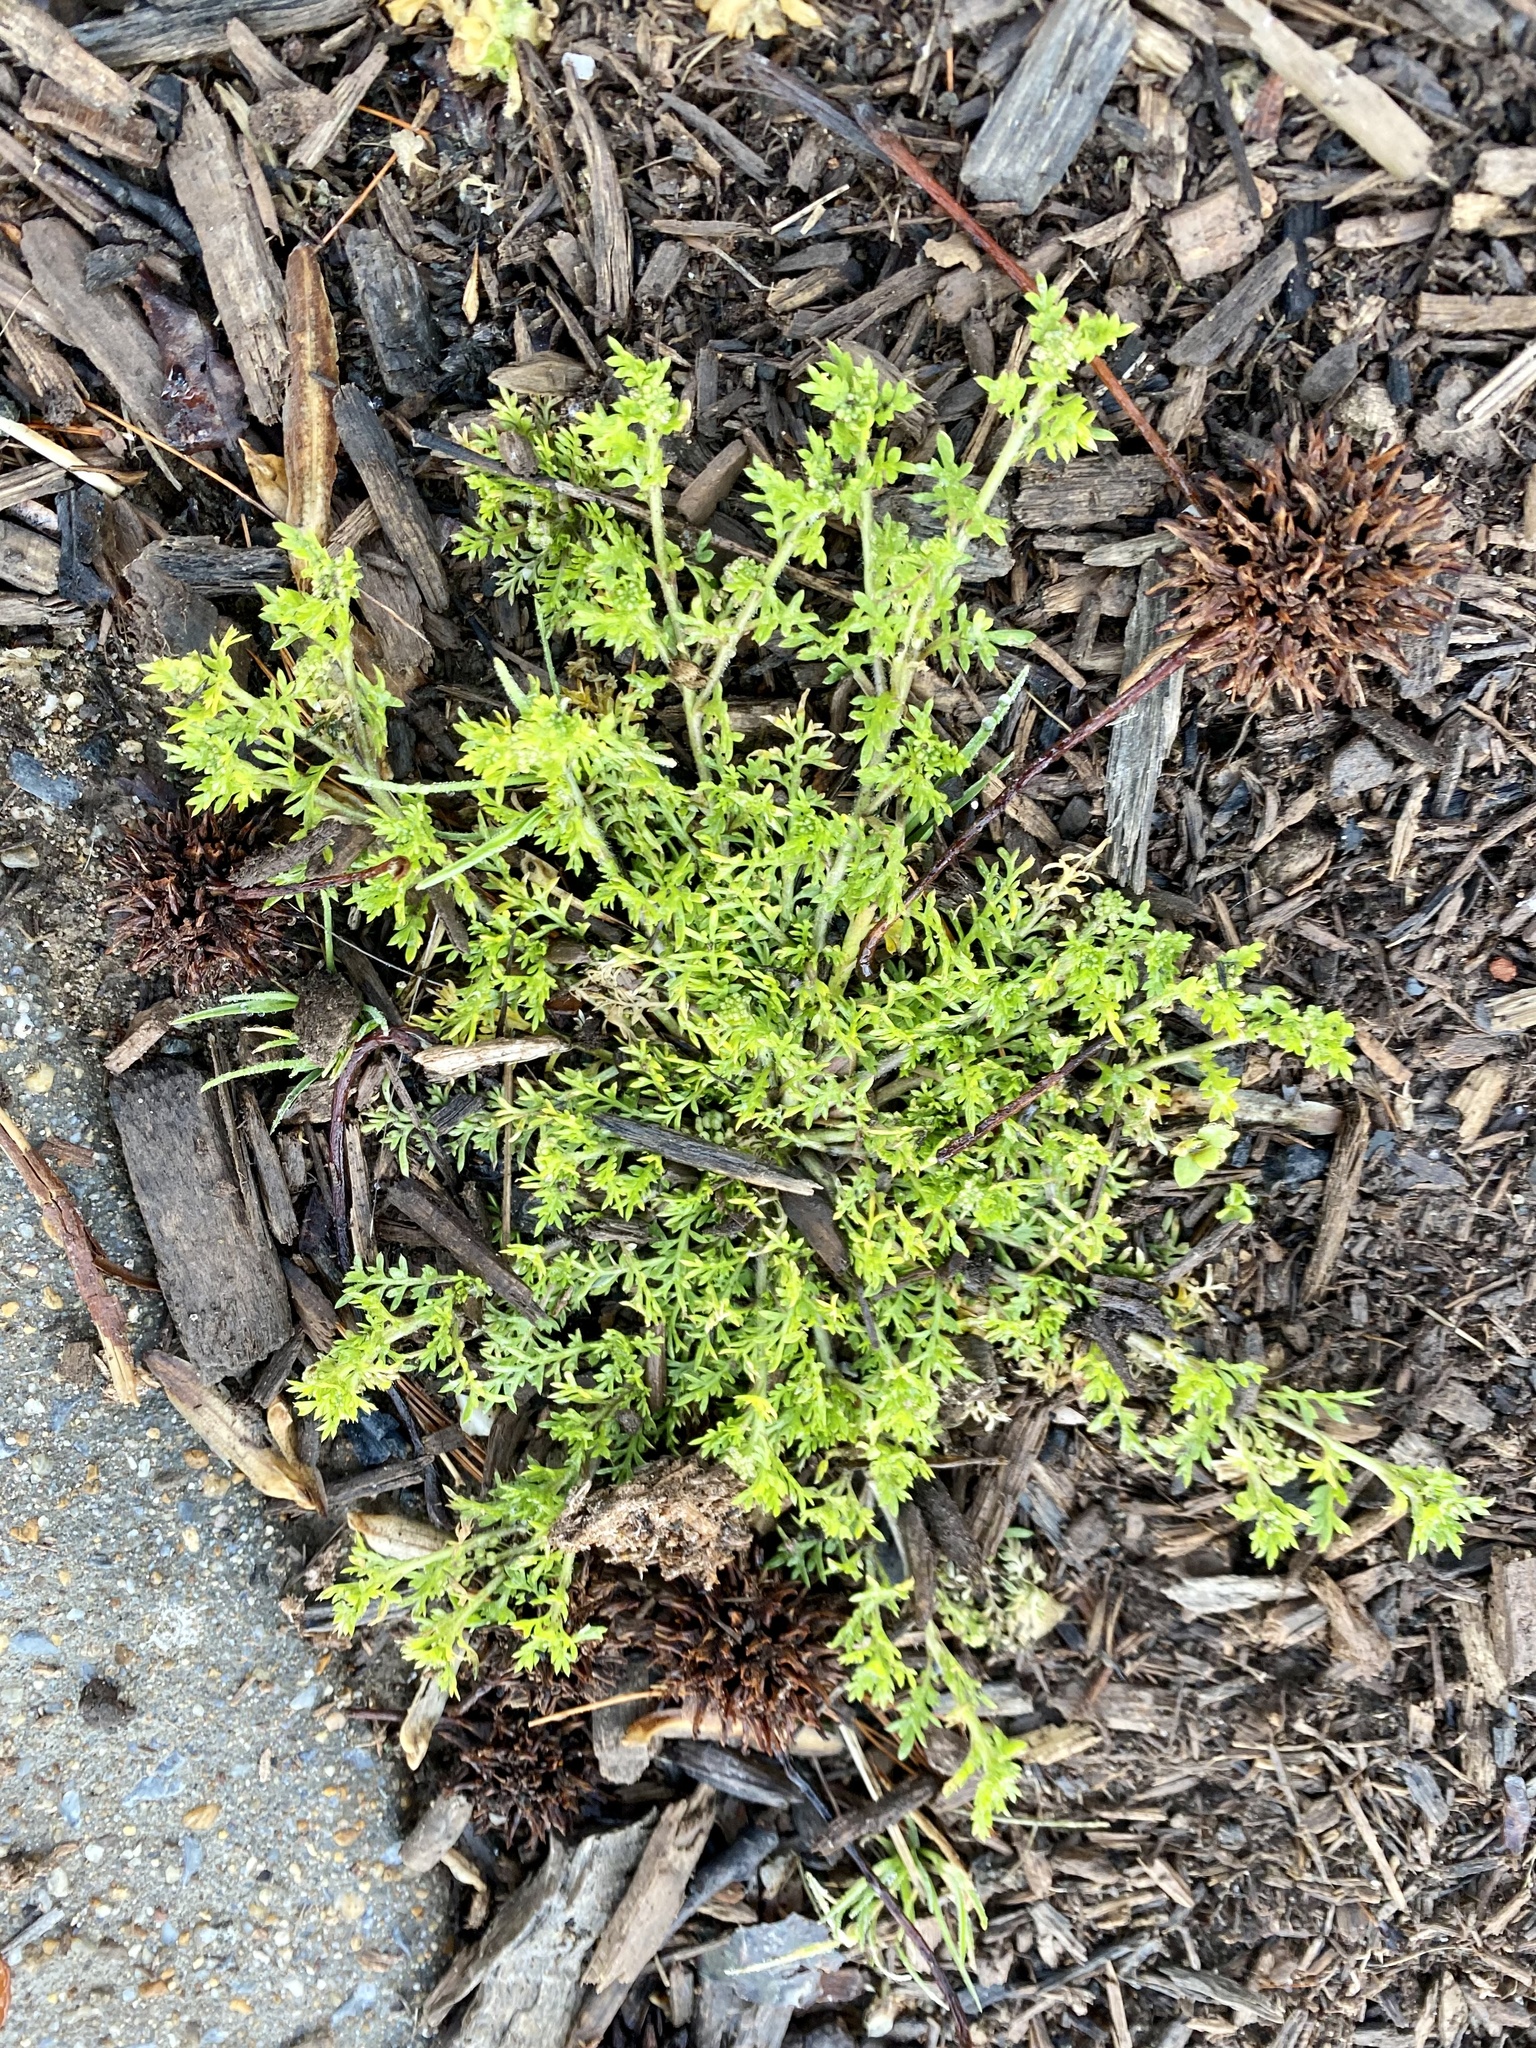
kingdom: Plantae
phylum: Tracheophyta
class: Magnoliopsida
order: Brassicales
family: Brassicaceae
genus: Lepidium
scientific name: Lepidium didymum
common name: Lesser swinecress
